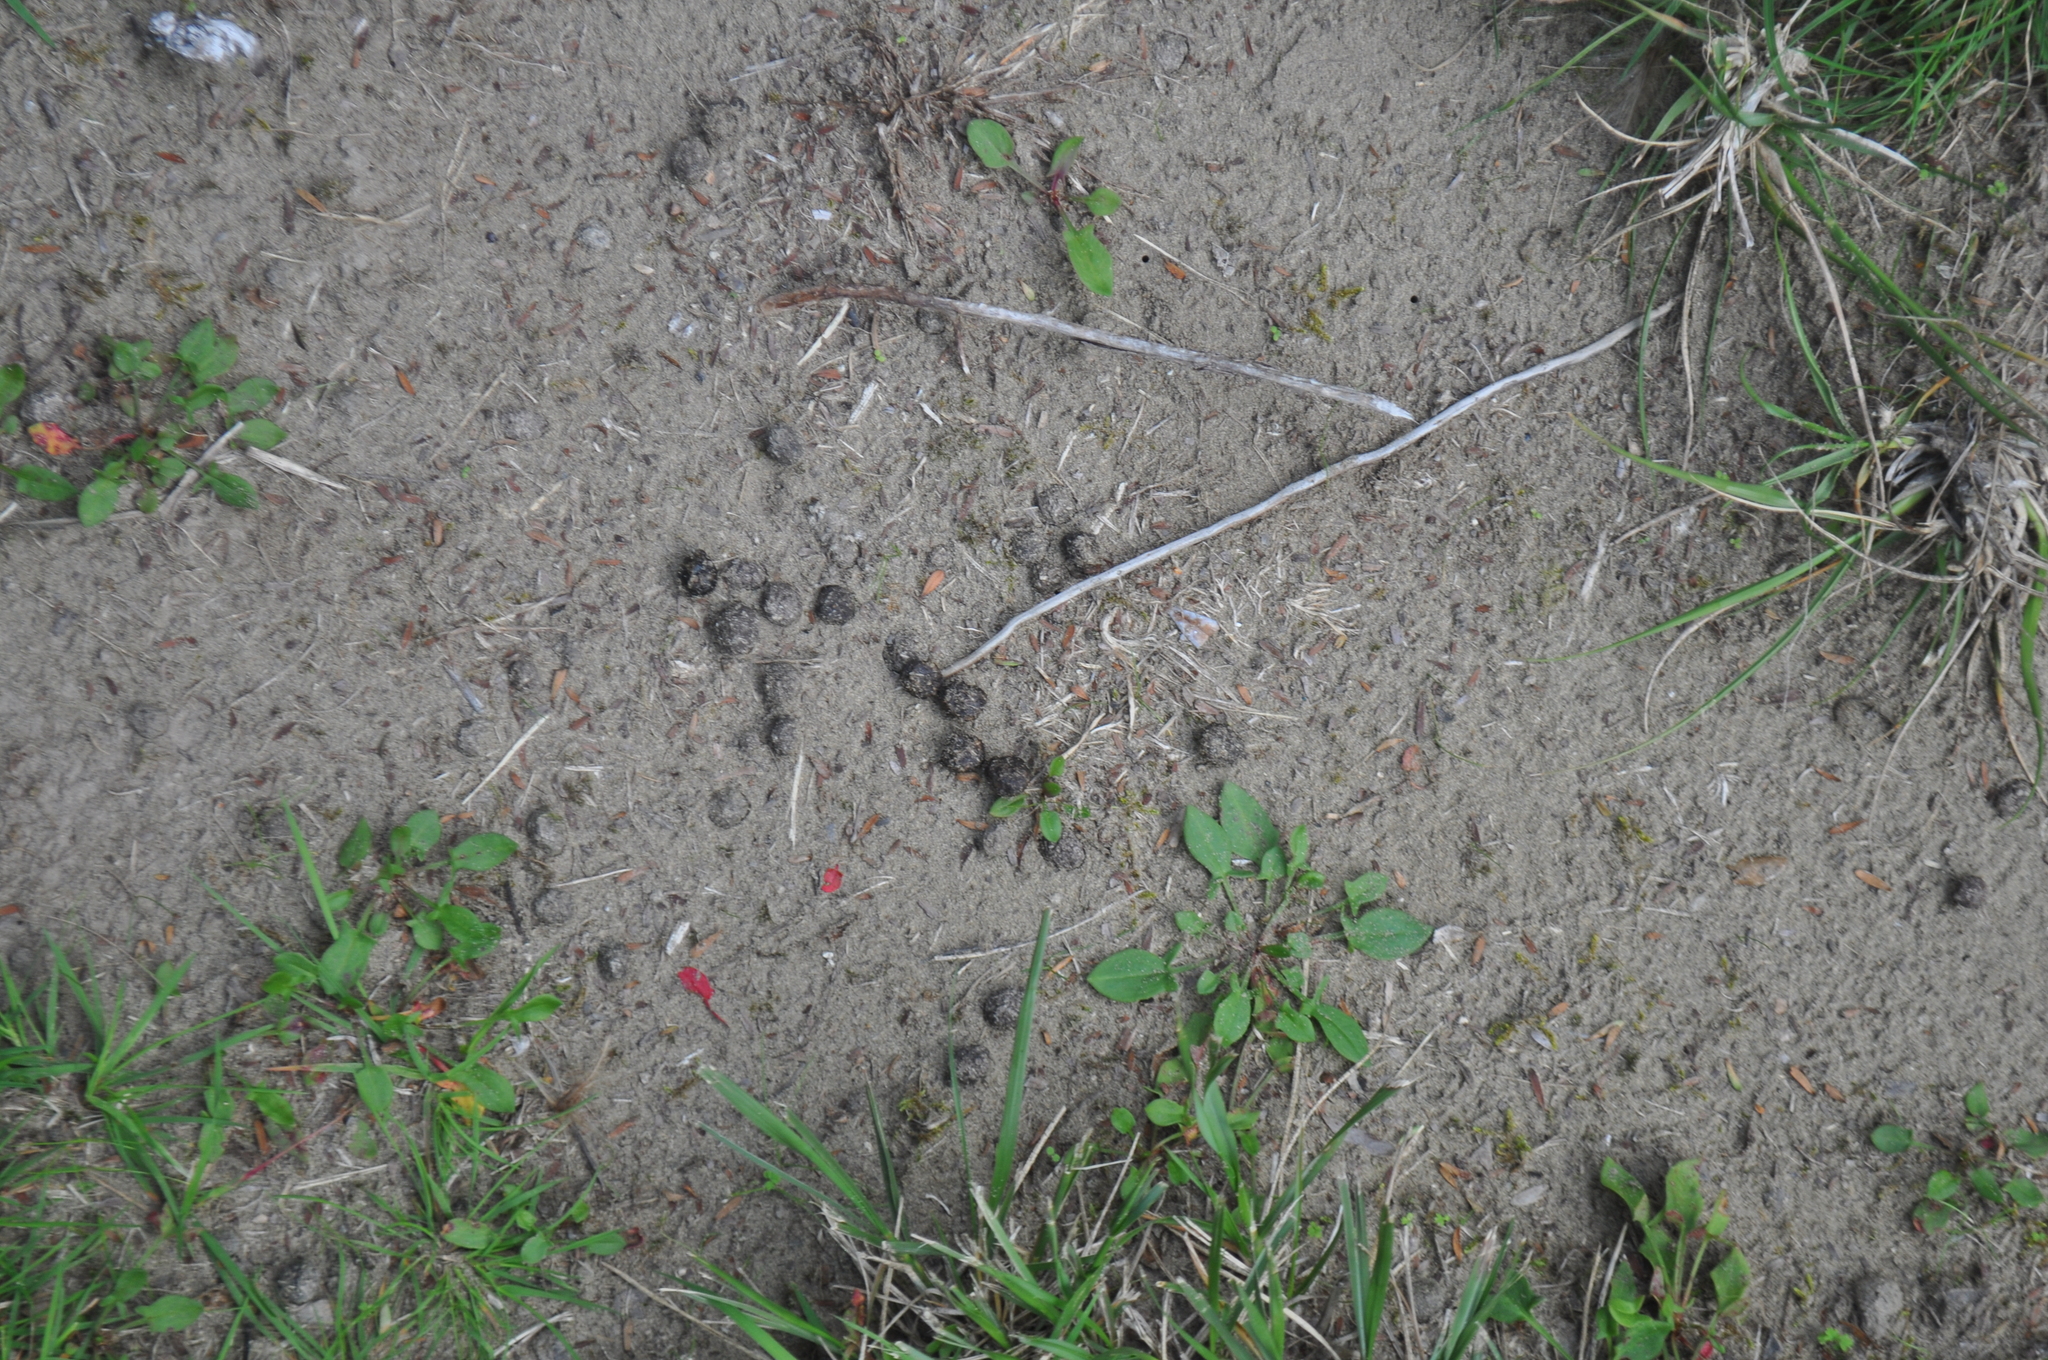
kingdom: Animalia
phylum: Chordata
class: Mammalia
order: Lagomorpha
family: Leporidae
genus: Oryctolagus
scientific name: Oryctolagus cuniculus
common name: European rabbit
